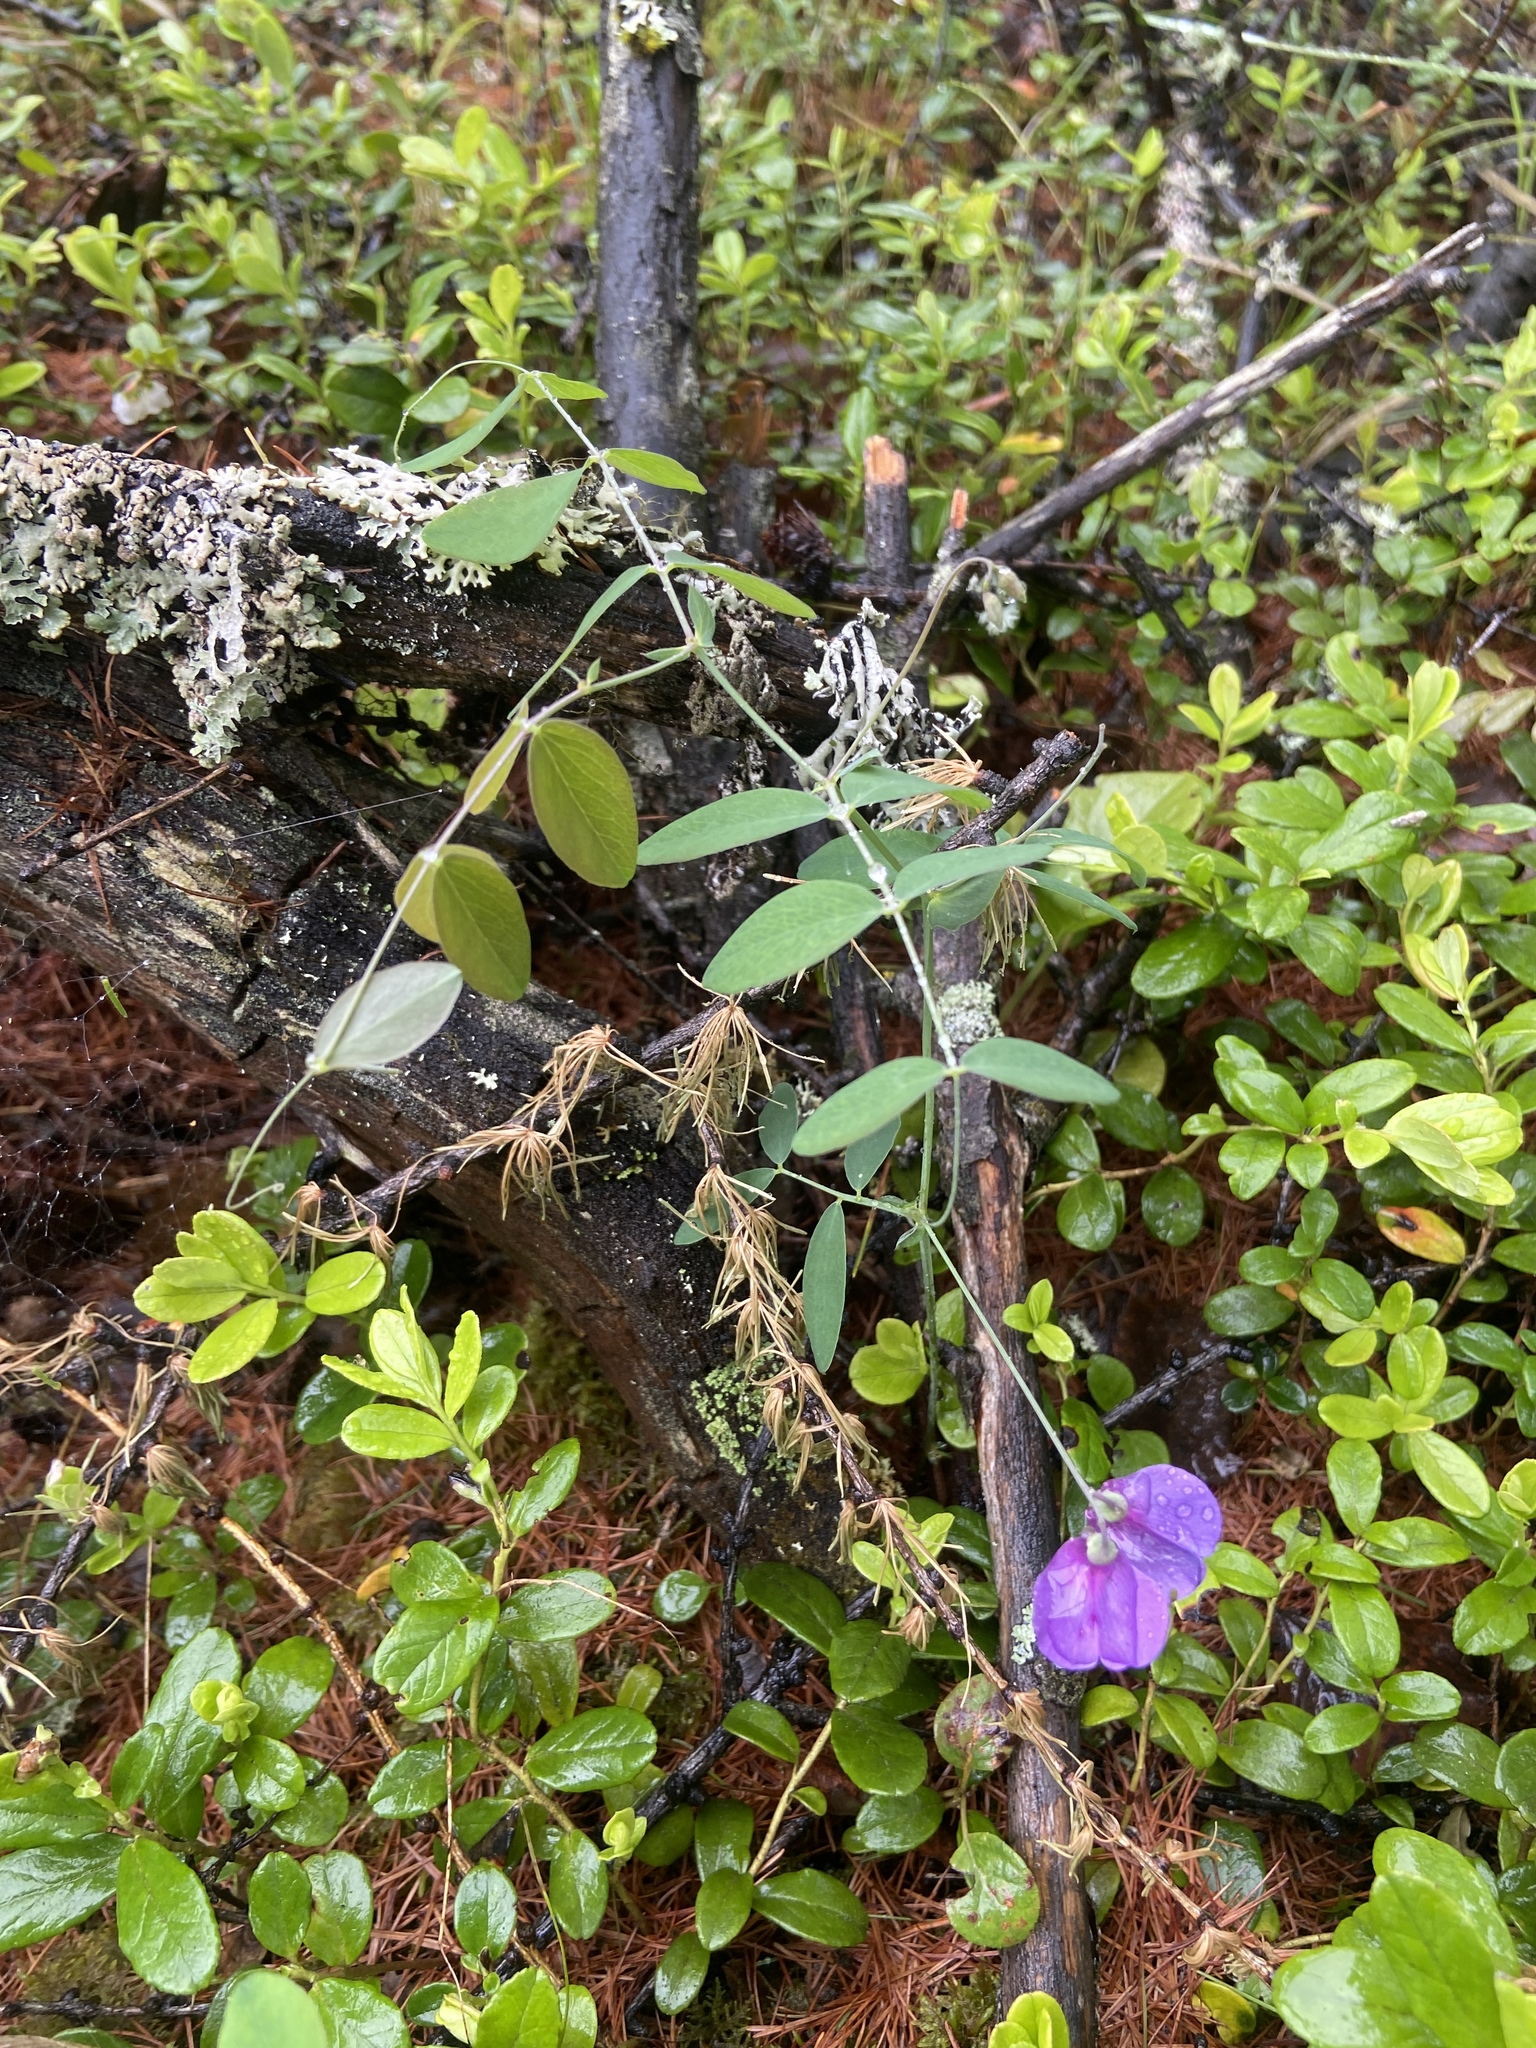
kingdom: Plantae
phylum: Tracheophyta
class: Magnoliopsida
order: Fabales
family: Fabaceae
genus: Lathyrus
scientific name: Lathyrus palustris
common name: Marsh pea
